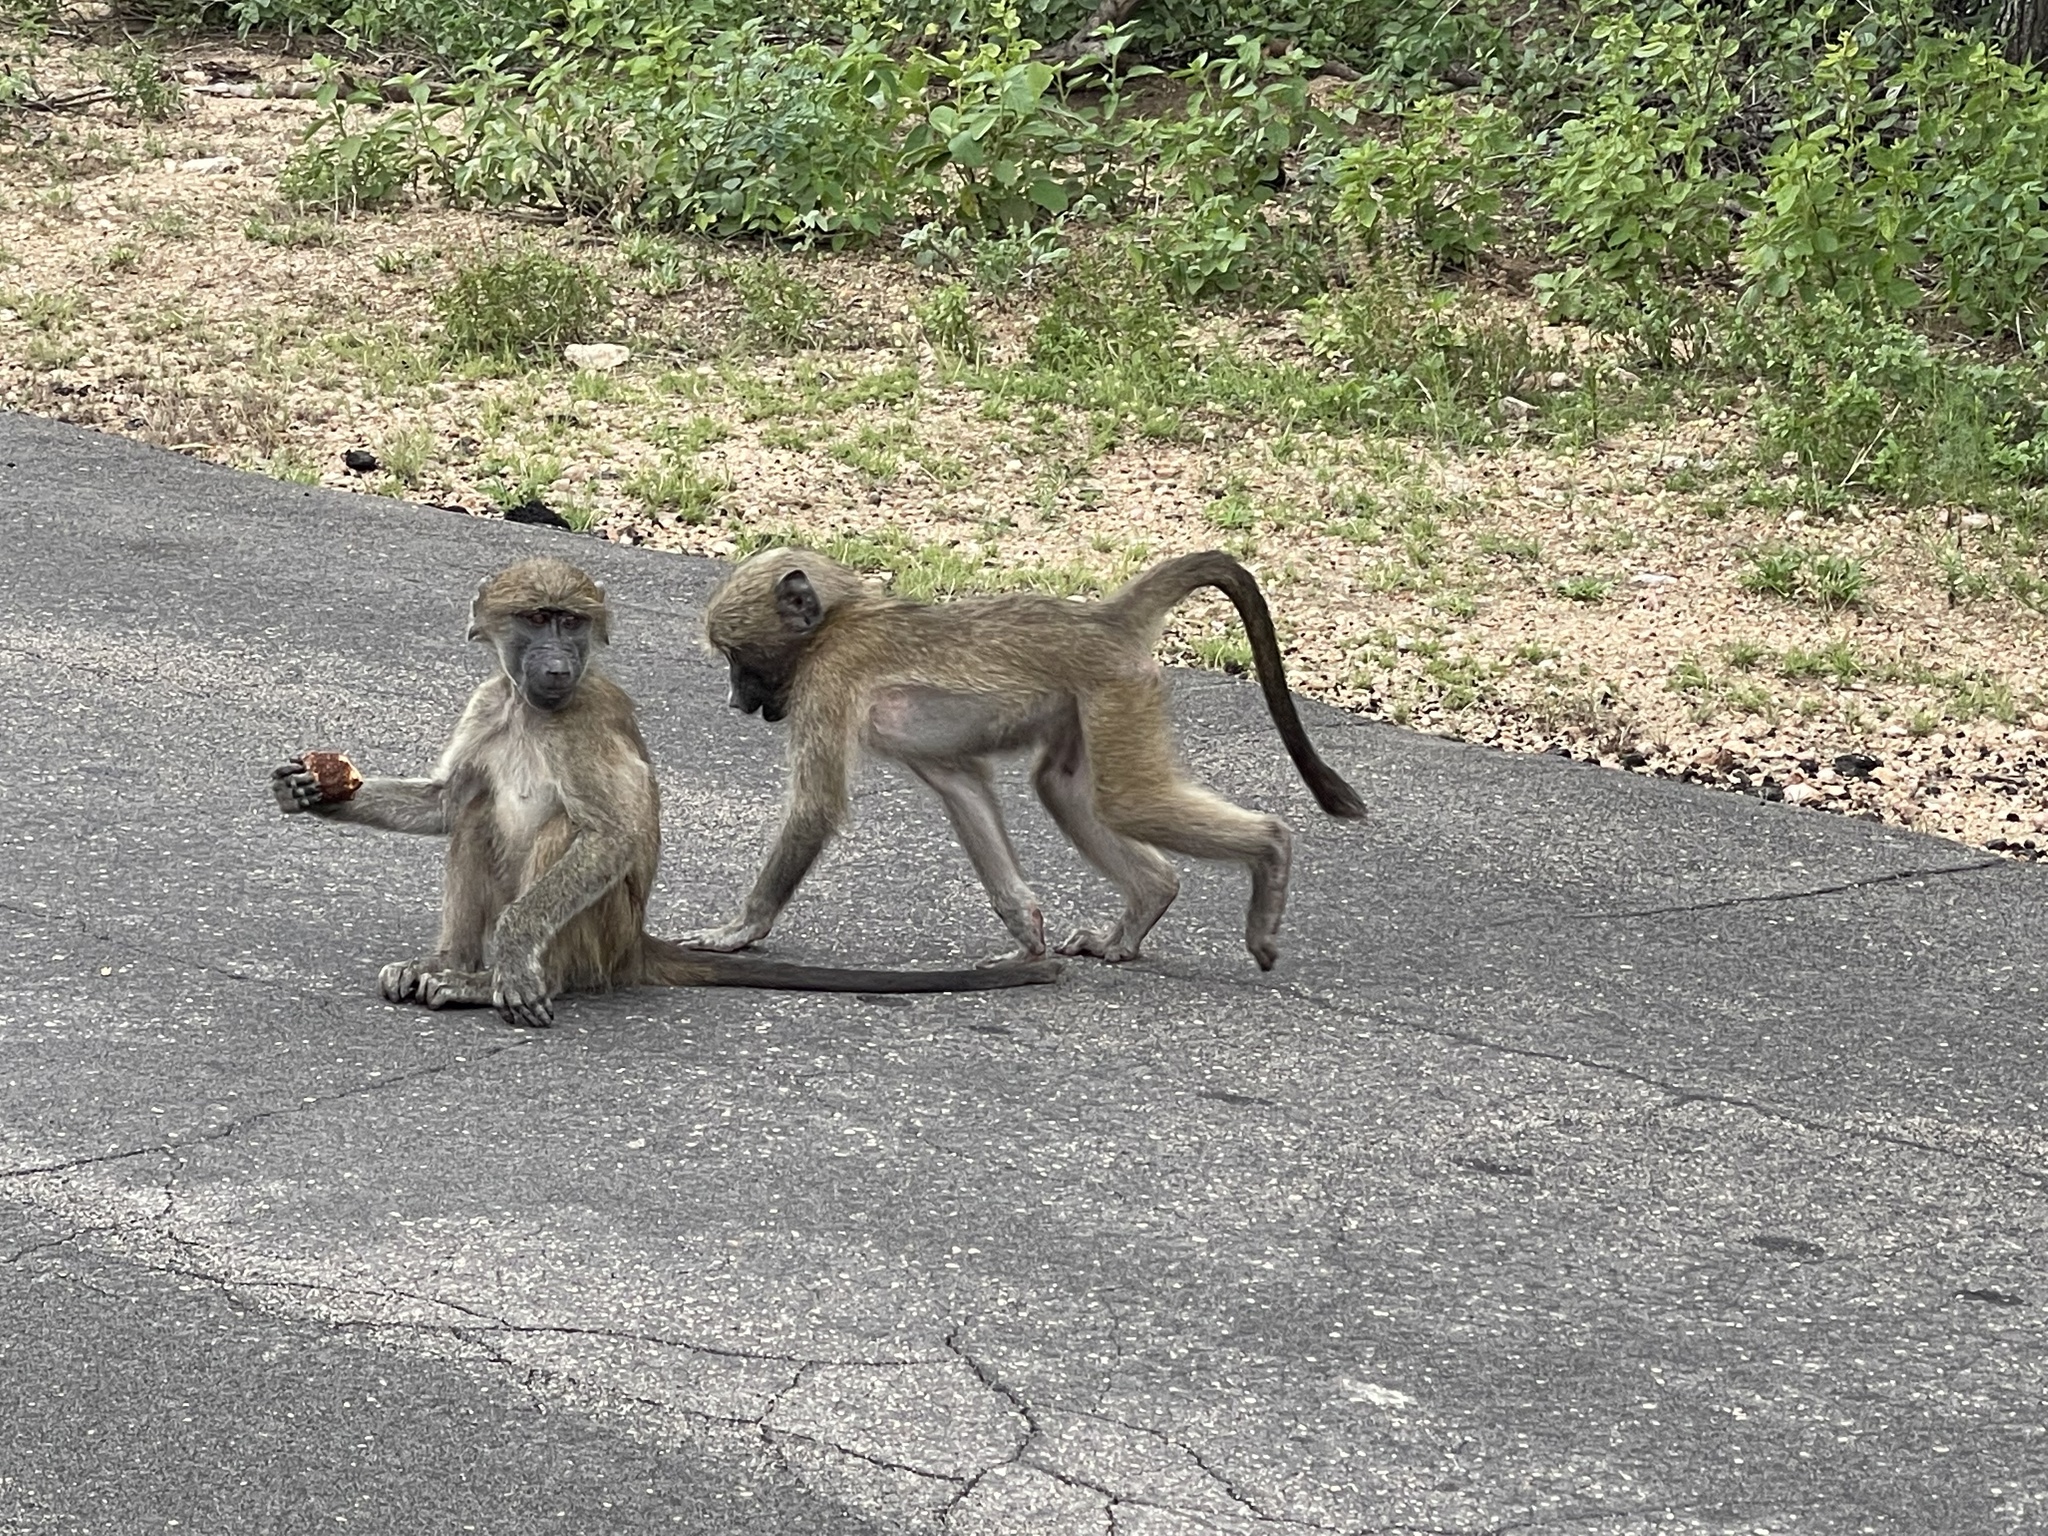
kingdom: Animalia
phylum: Chordata
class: Mammalia
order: Primates
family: Cercopithecidae
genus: Papio
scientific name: Papio ursinus
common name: Chacma baboon
